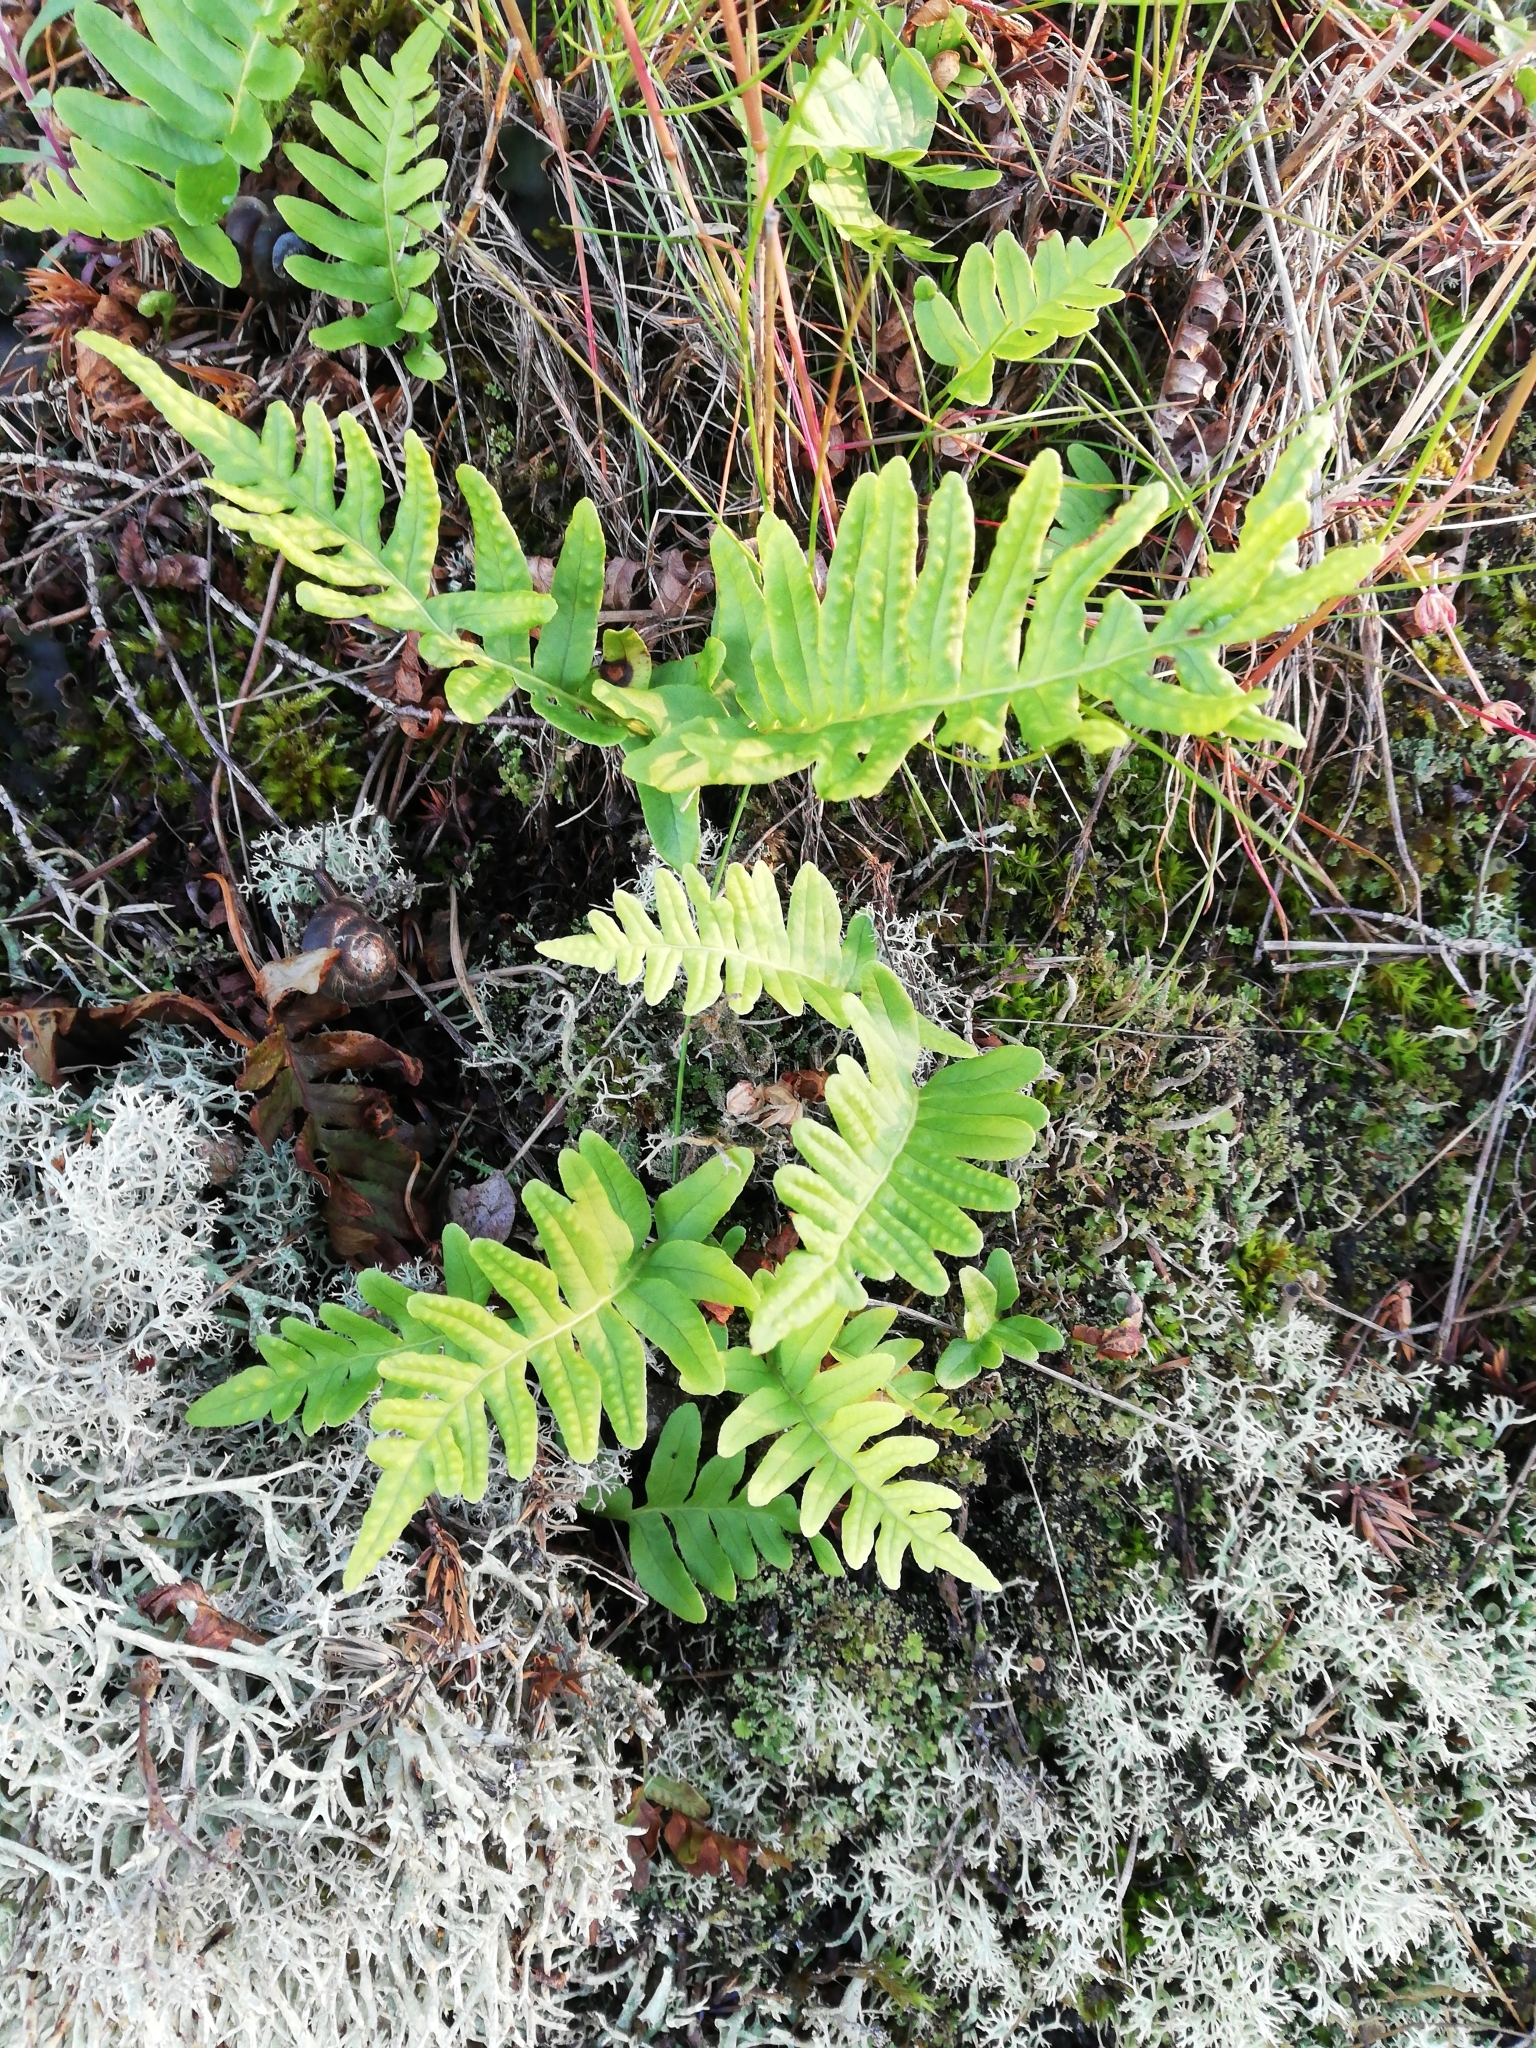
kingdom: Plantae
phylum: Tracheophyta
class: Polypodiopsida
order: Polypodiales
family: Polypodiaceae
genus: Polypodium
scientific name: Polypodium vulgare
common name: Common polypody
